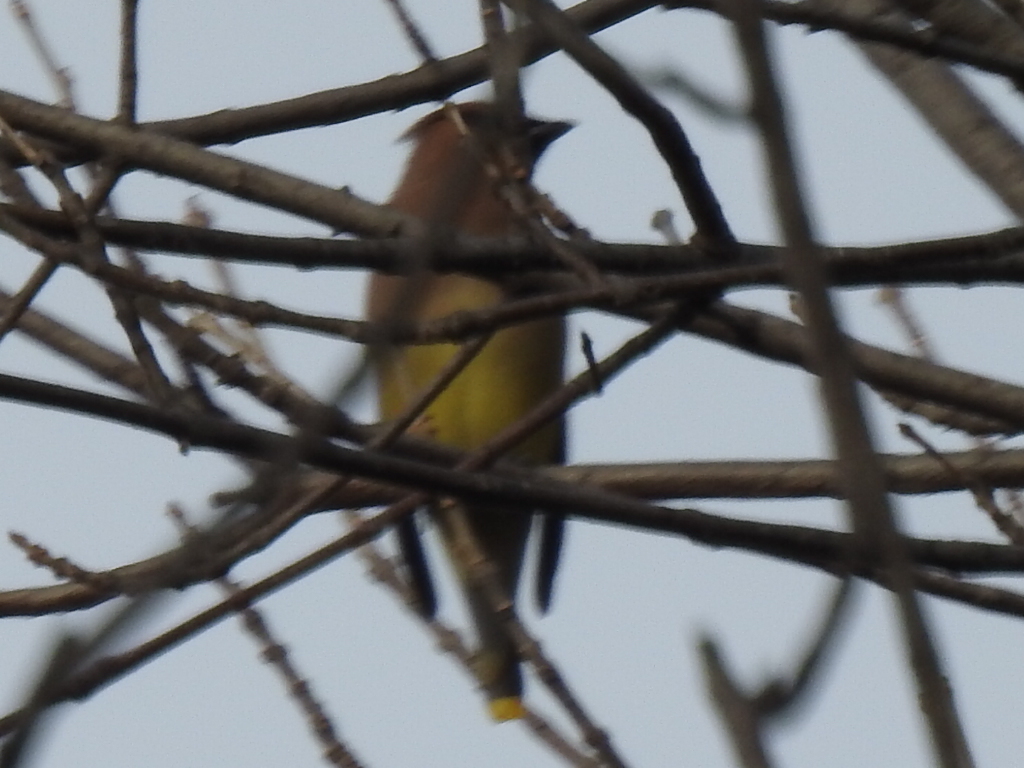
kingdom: Animalia
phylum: Chordata
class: Aves
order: Passeriformes
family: Bombycillidae
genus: Bombycilla
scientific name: Bombycilla cedrorum
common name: Cedar waxwing
